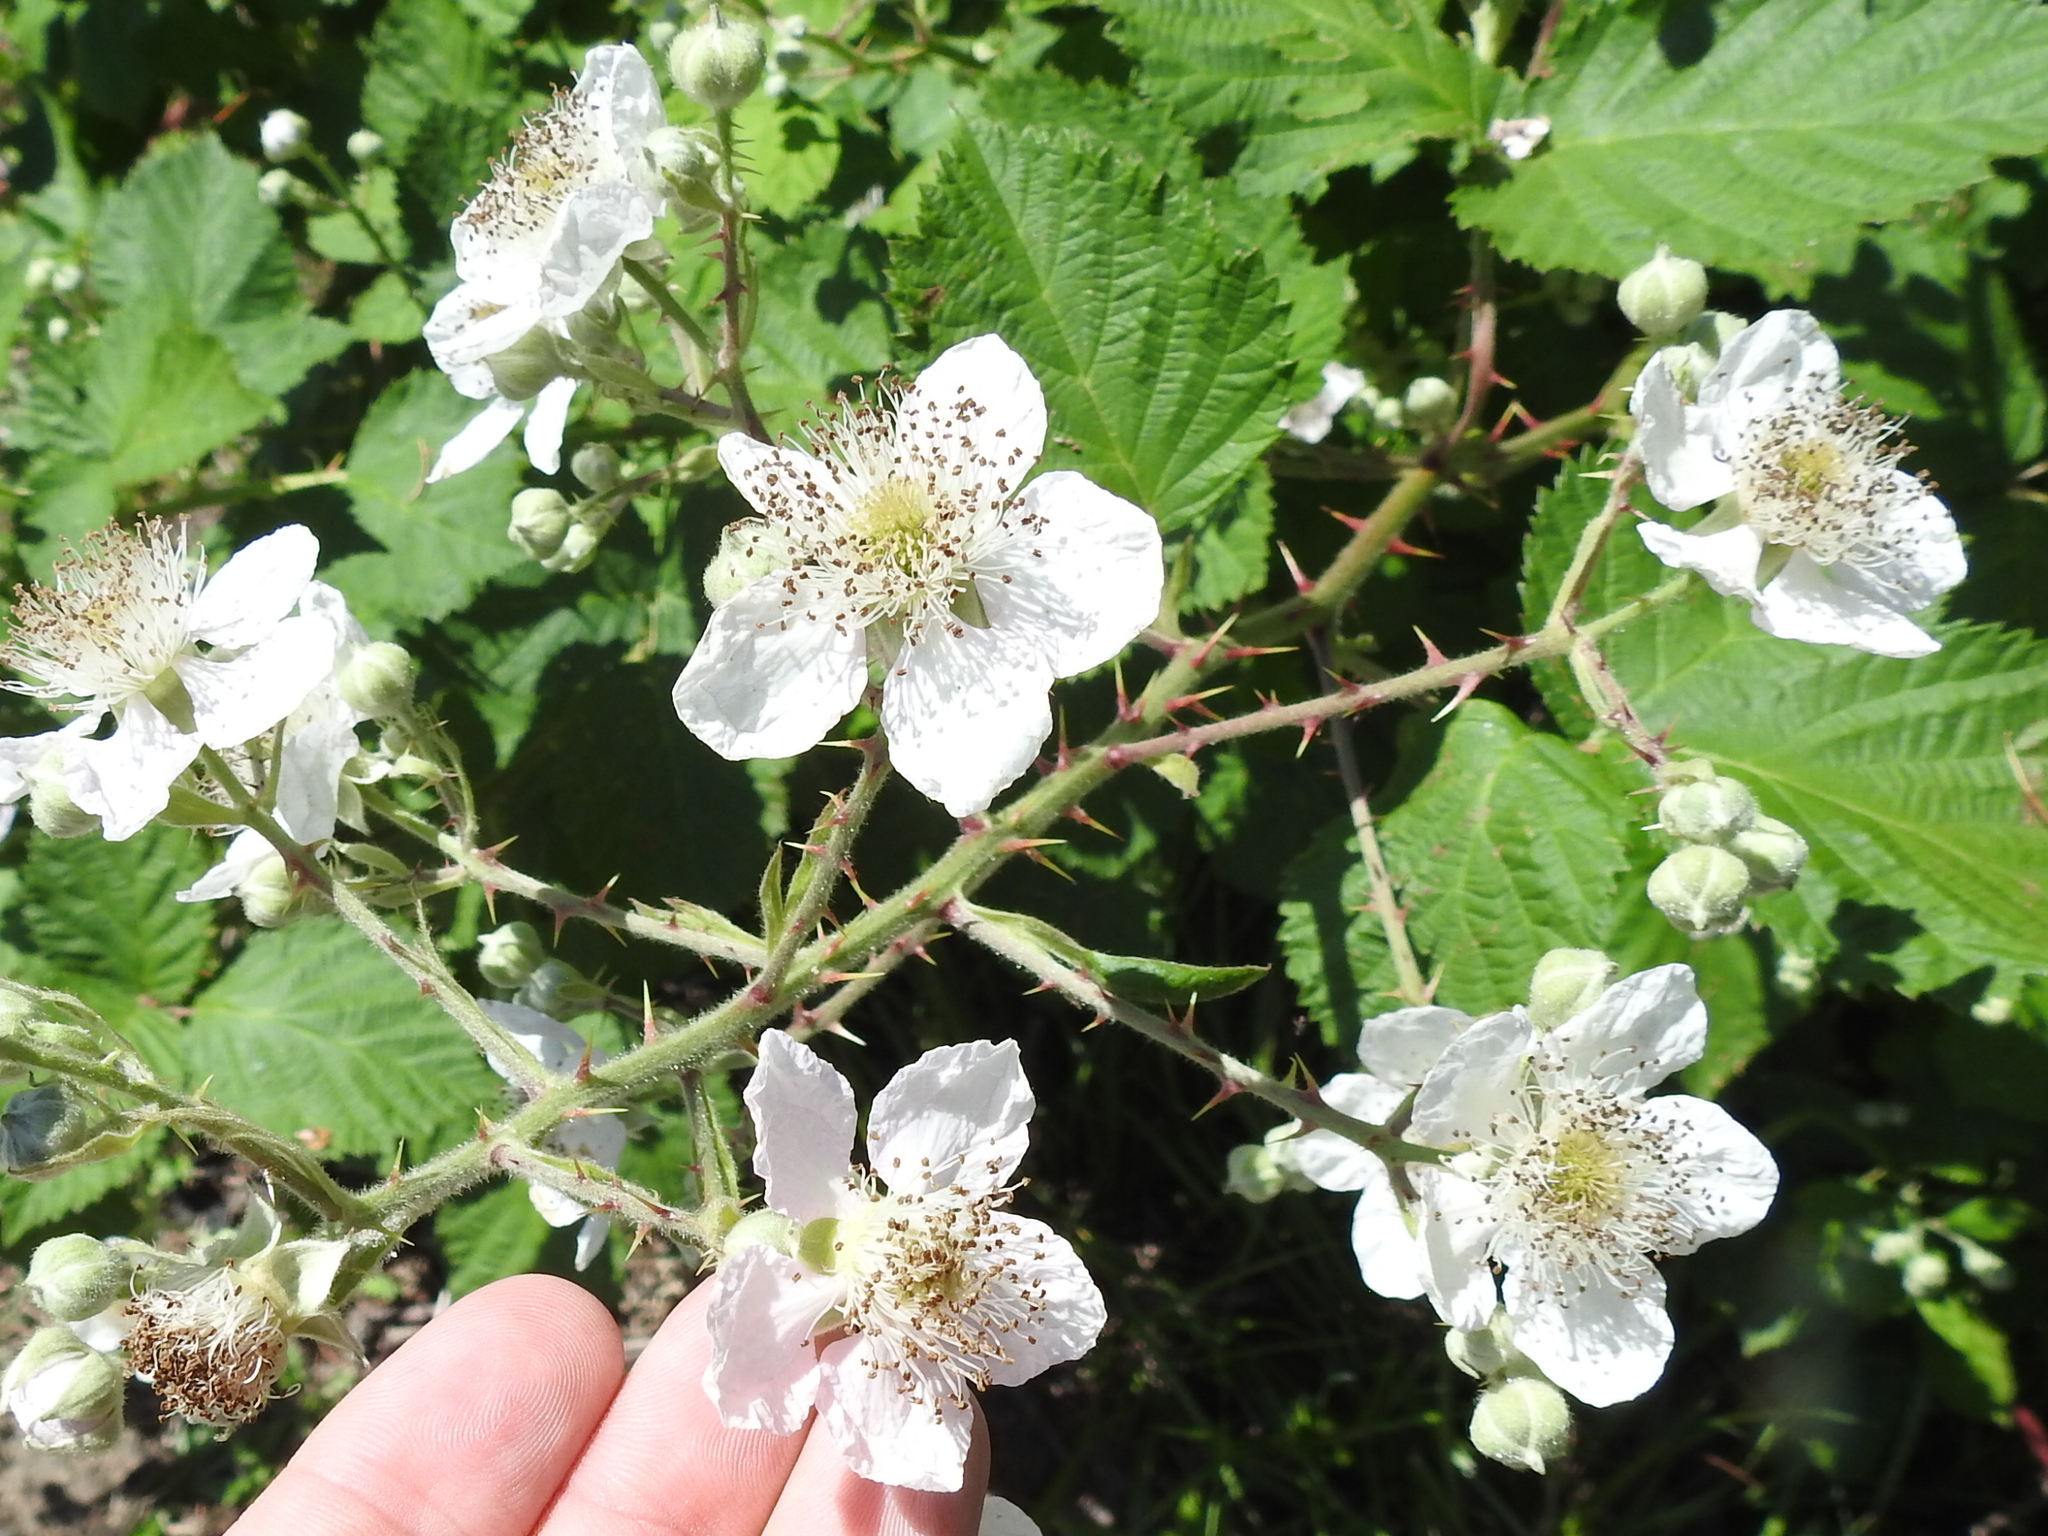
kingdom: Plantae
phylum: Tracheophyta
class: Magnoliopsida
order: Rosales
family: Rosaceae
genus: Rubus
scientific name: Rubus armeniacus
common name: Himalayan blackberry
